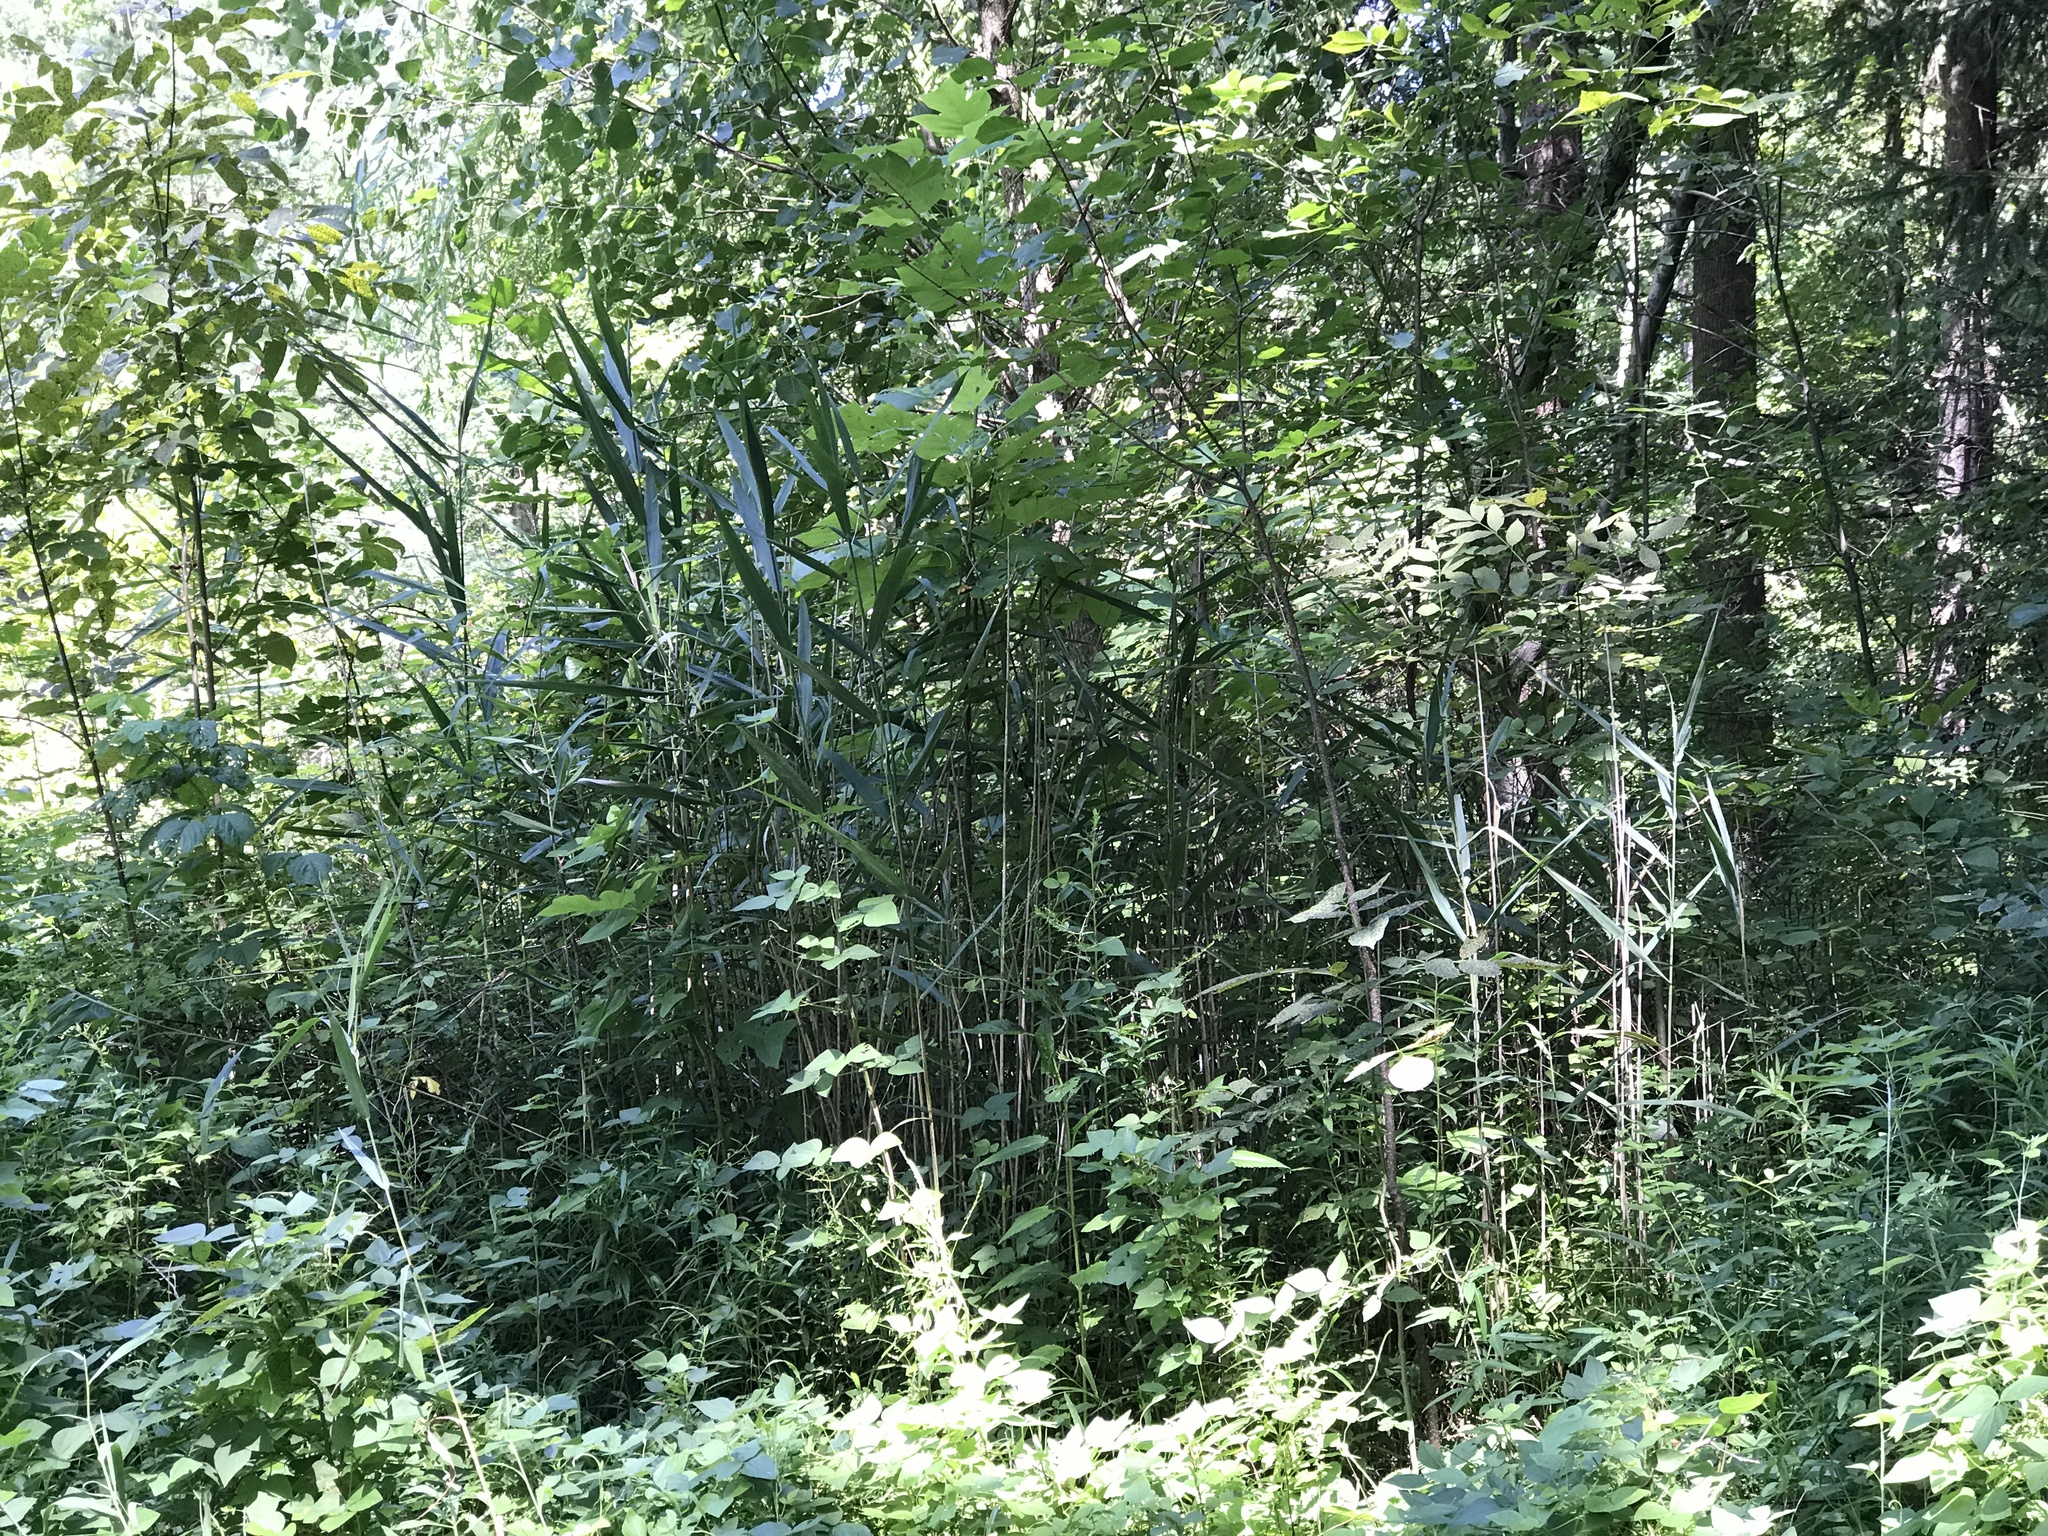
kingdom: Plantae
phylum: Tracheophyta
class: Liliopsida
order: Poales
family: Poaceae
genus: Phragmites
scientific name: Phragmites australis
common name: Common reed
